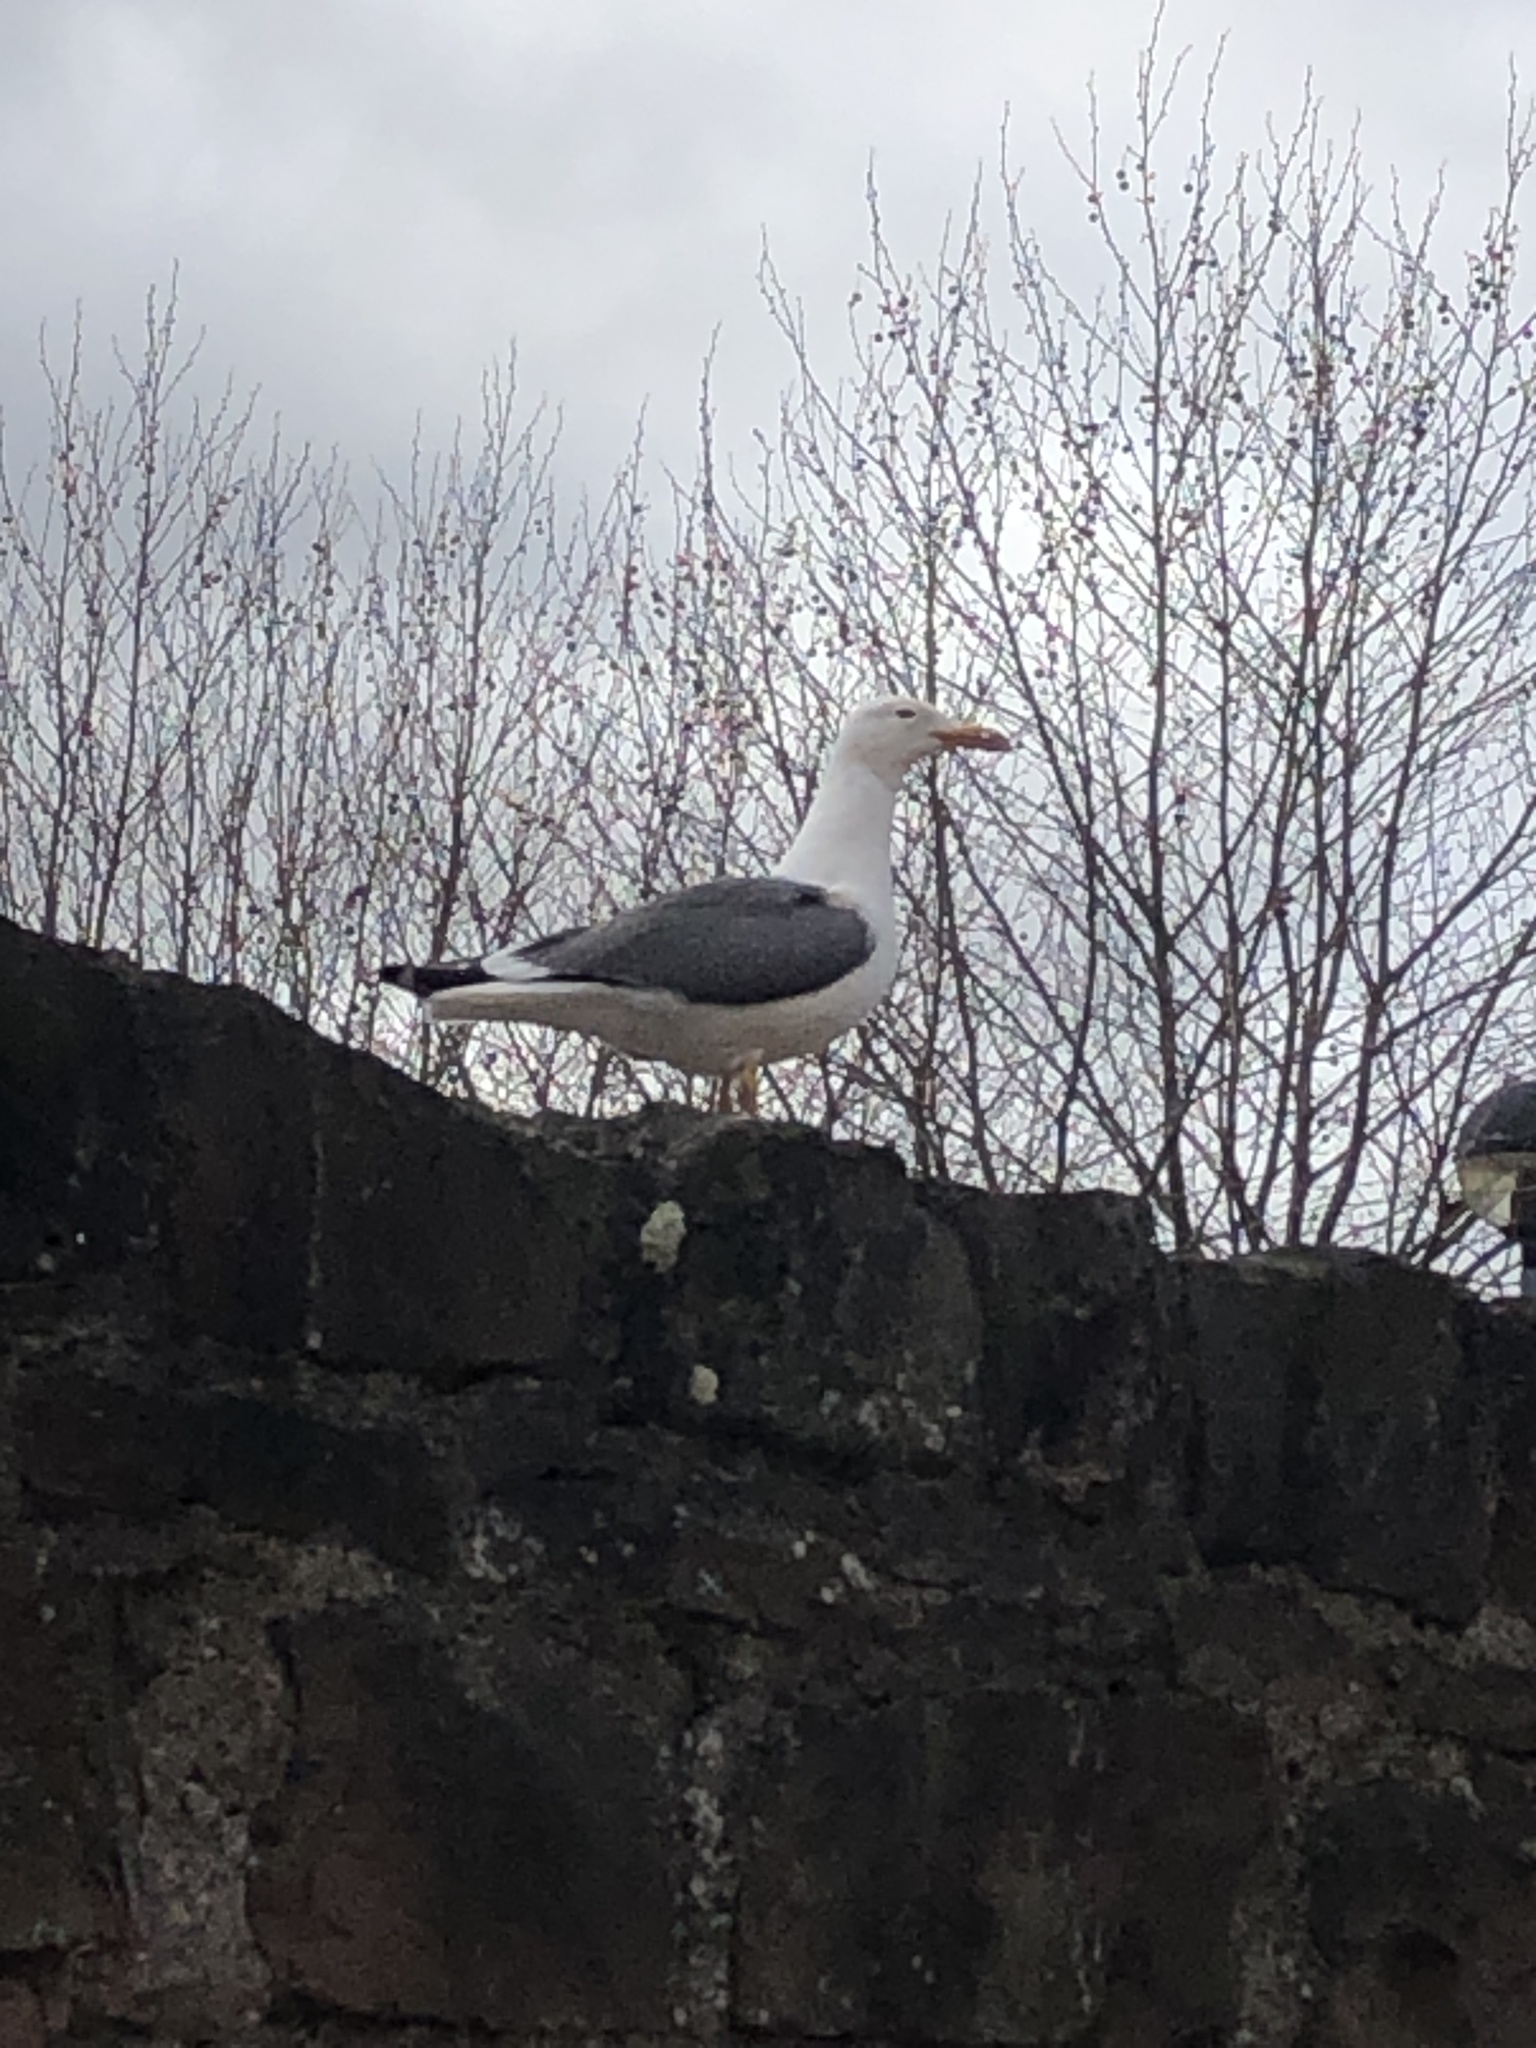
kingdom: Animalia
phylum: Chordata
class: Aves
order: Charadriiformes
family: Laridae
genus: Larus
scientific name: Larus argentatus
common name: Herring gull
